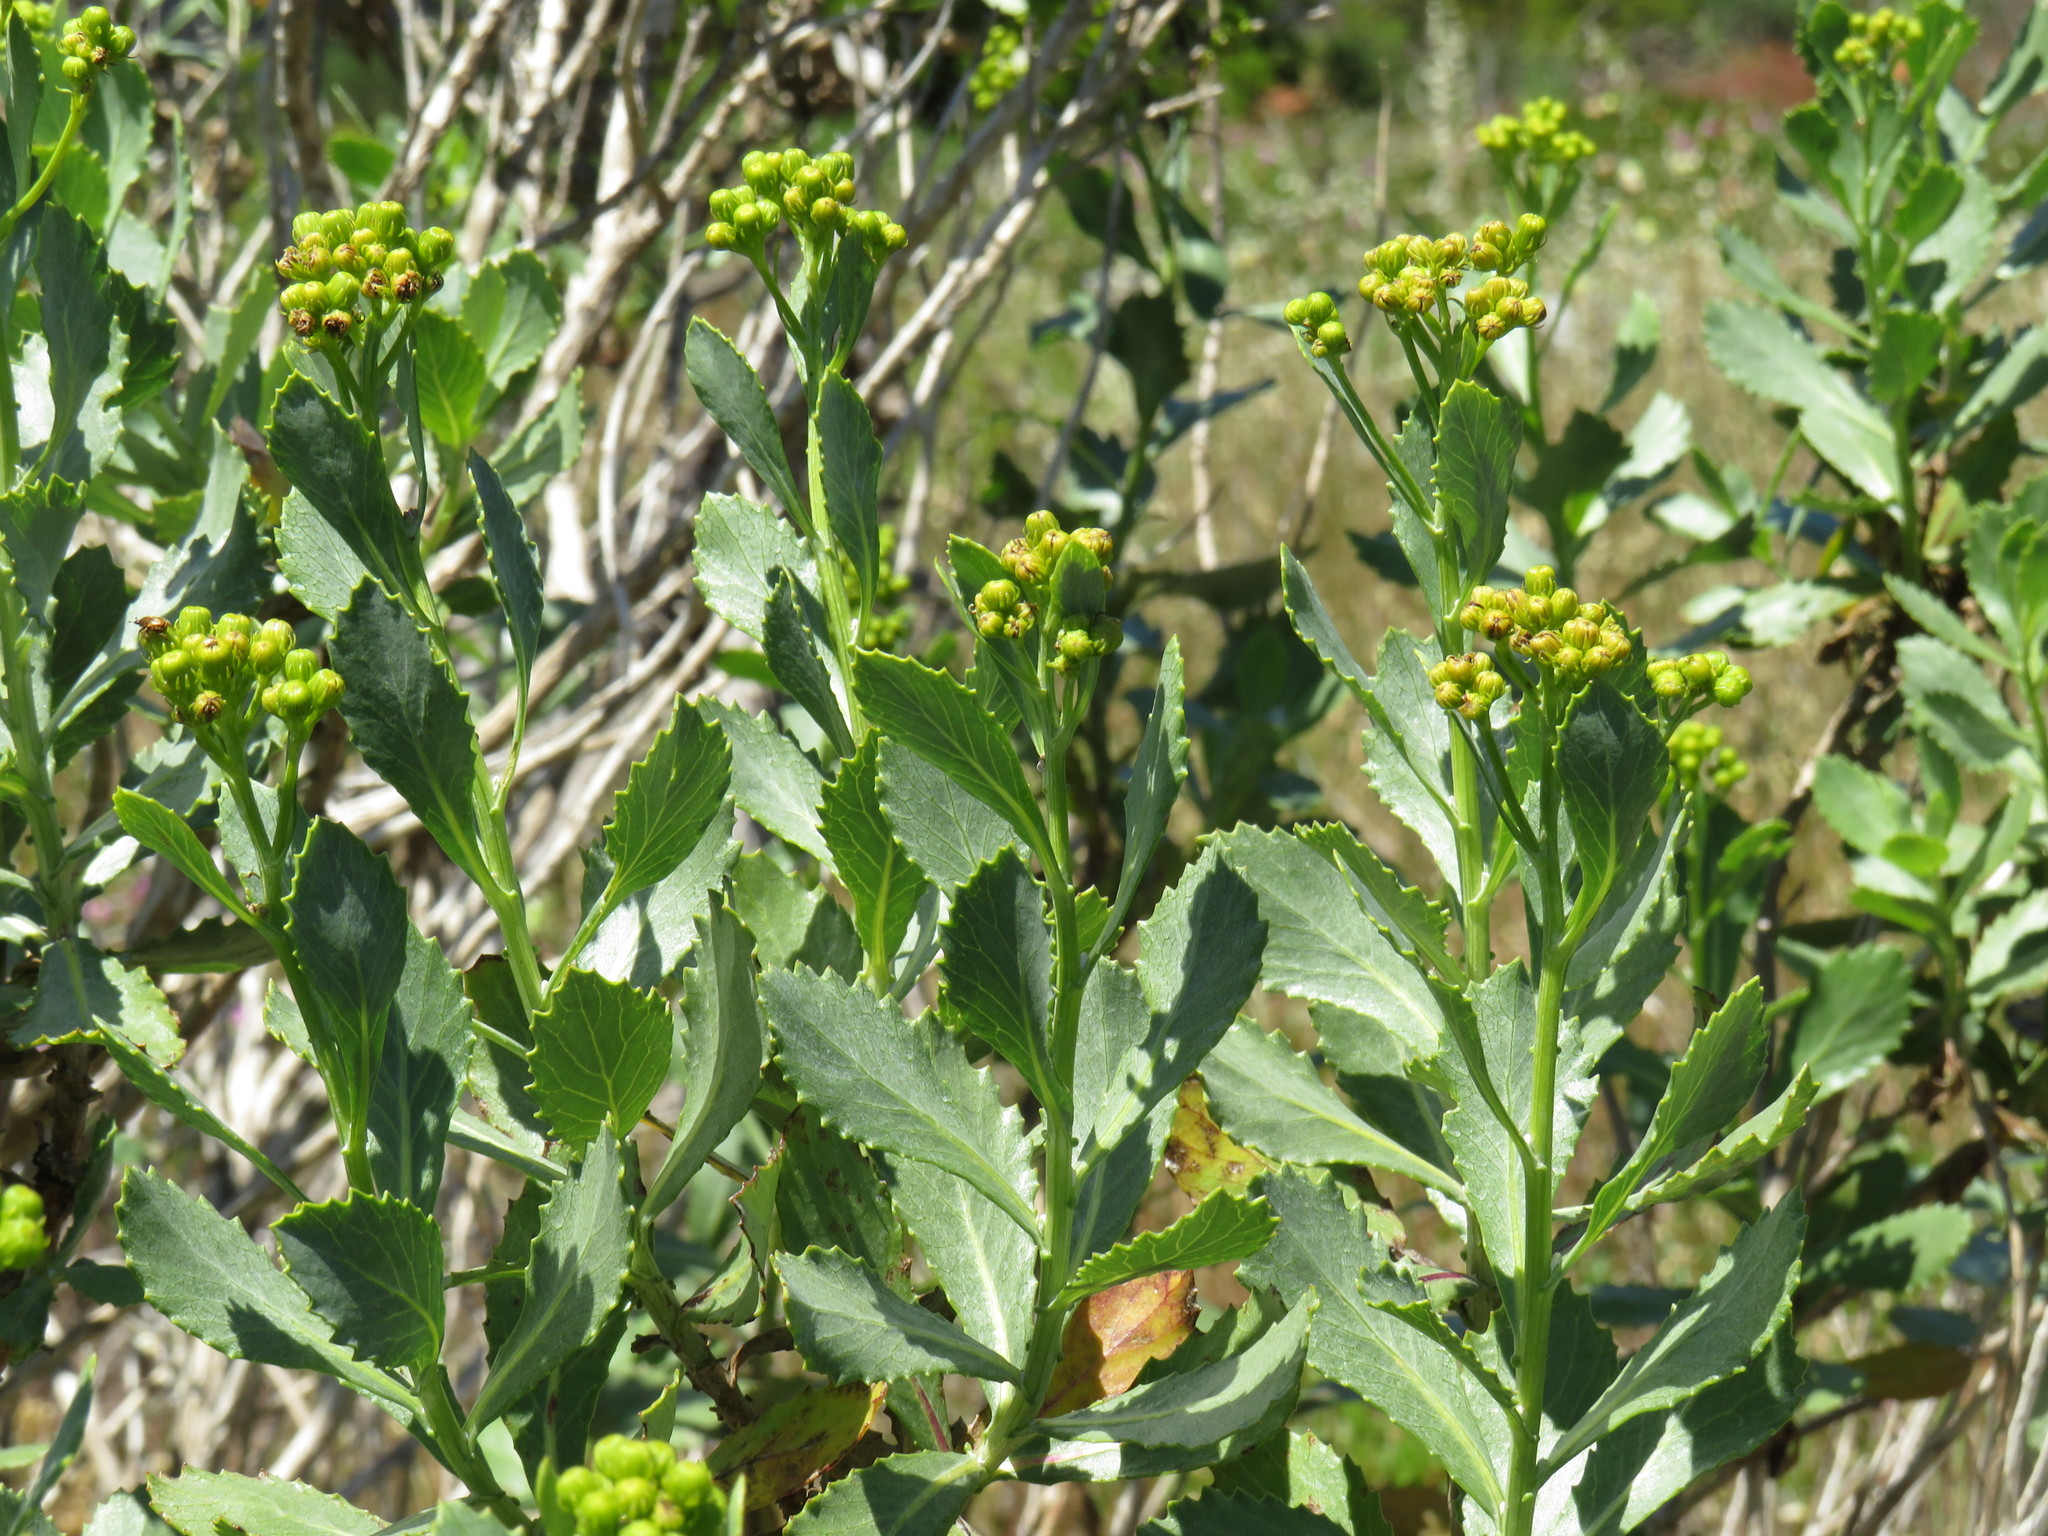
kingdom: Plantae
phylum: Tracheophyta
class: Magnoliopsida
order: Asterales
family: Asteraceae
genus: Senecio
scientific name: Senecio halimifolius
